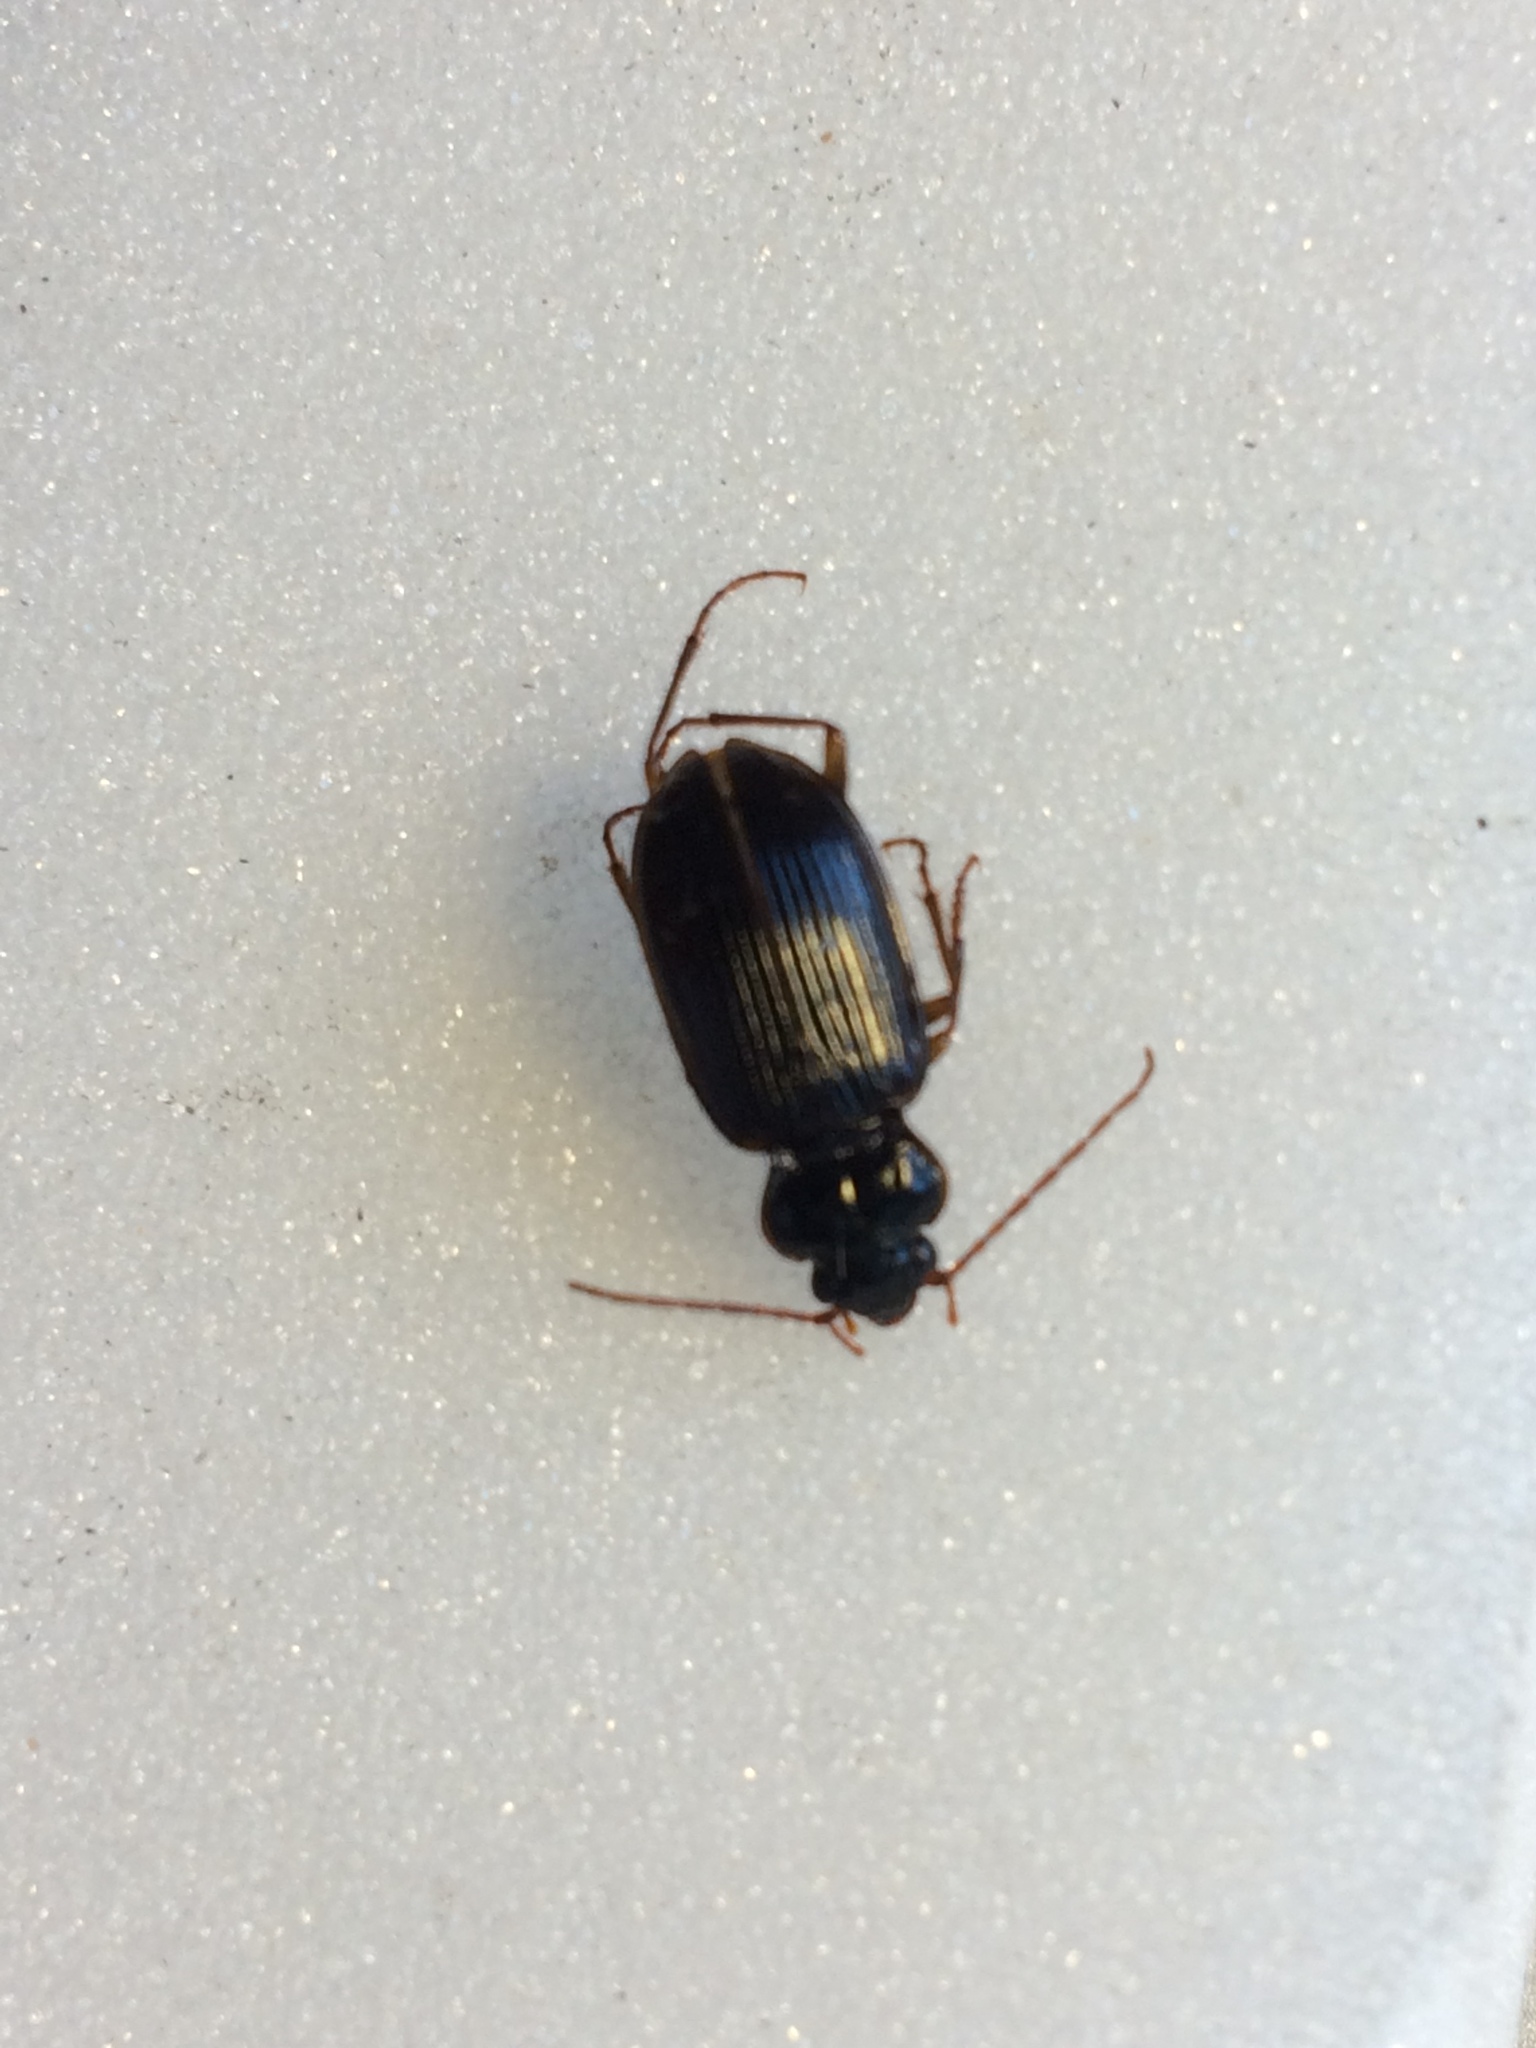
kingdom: Animalia
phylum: Arthropoda
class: Insecta
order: Coleoptera
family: Carabidae
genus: Nebria
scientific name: Nebria brevicollis
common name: Short-necked gazelle beetle
